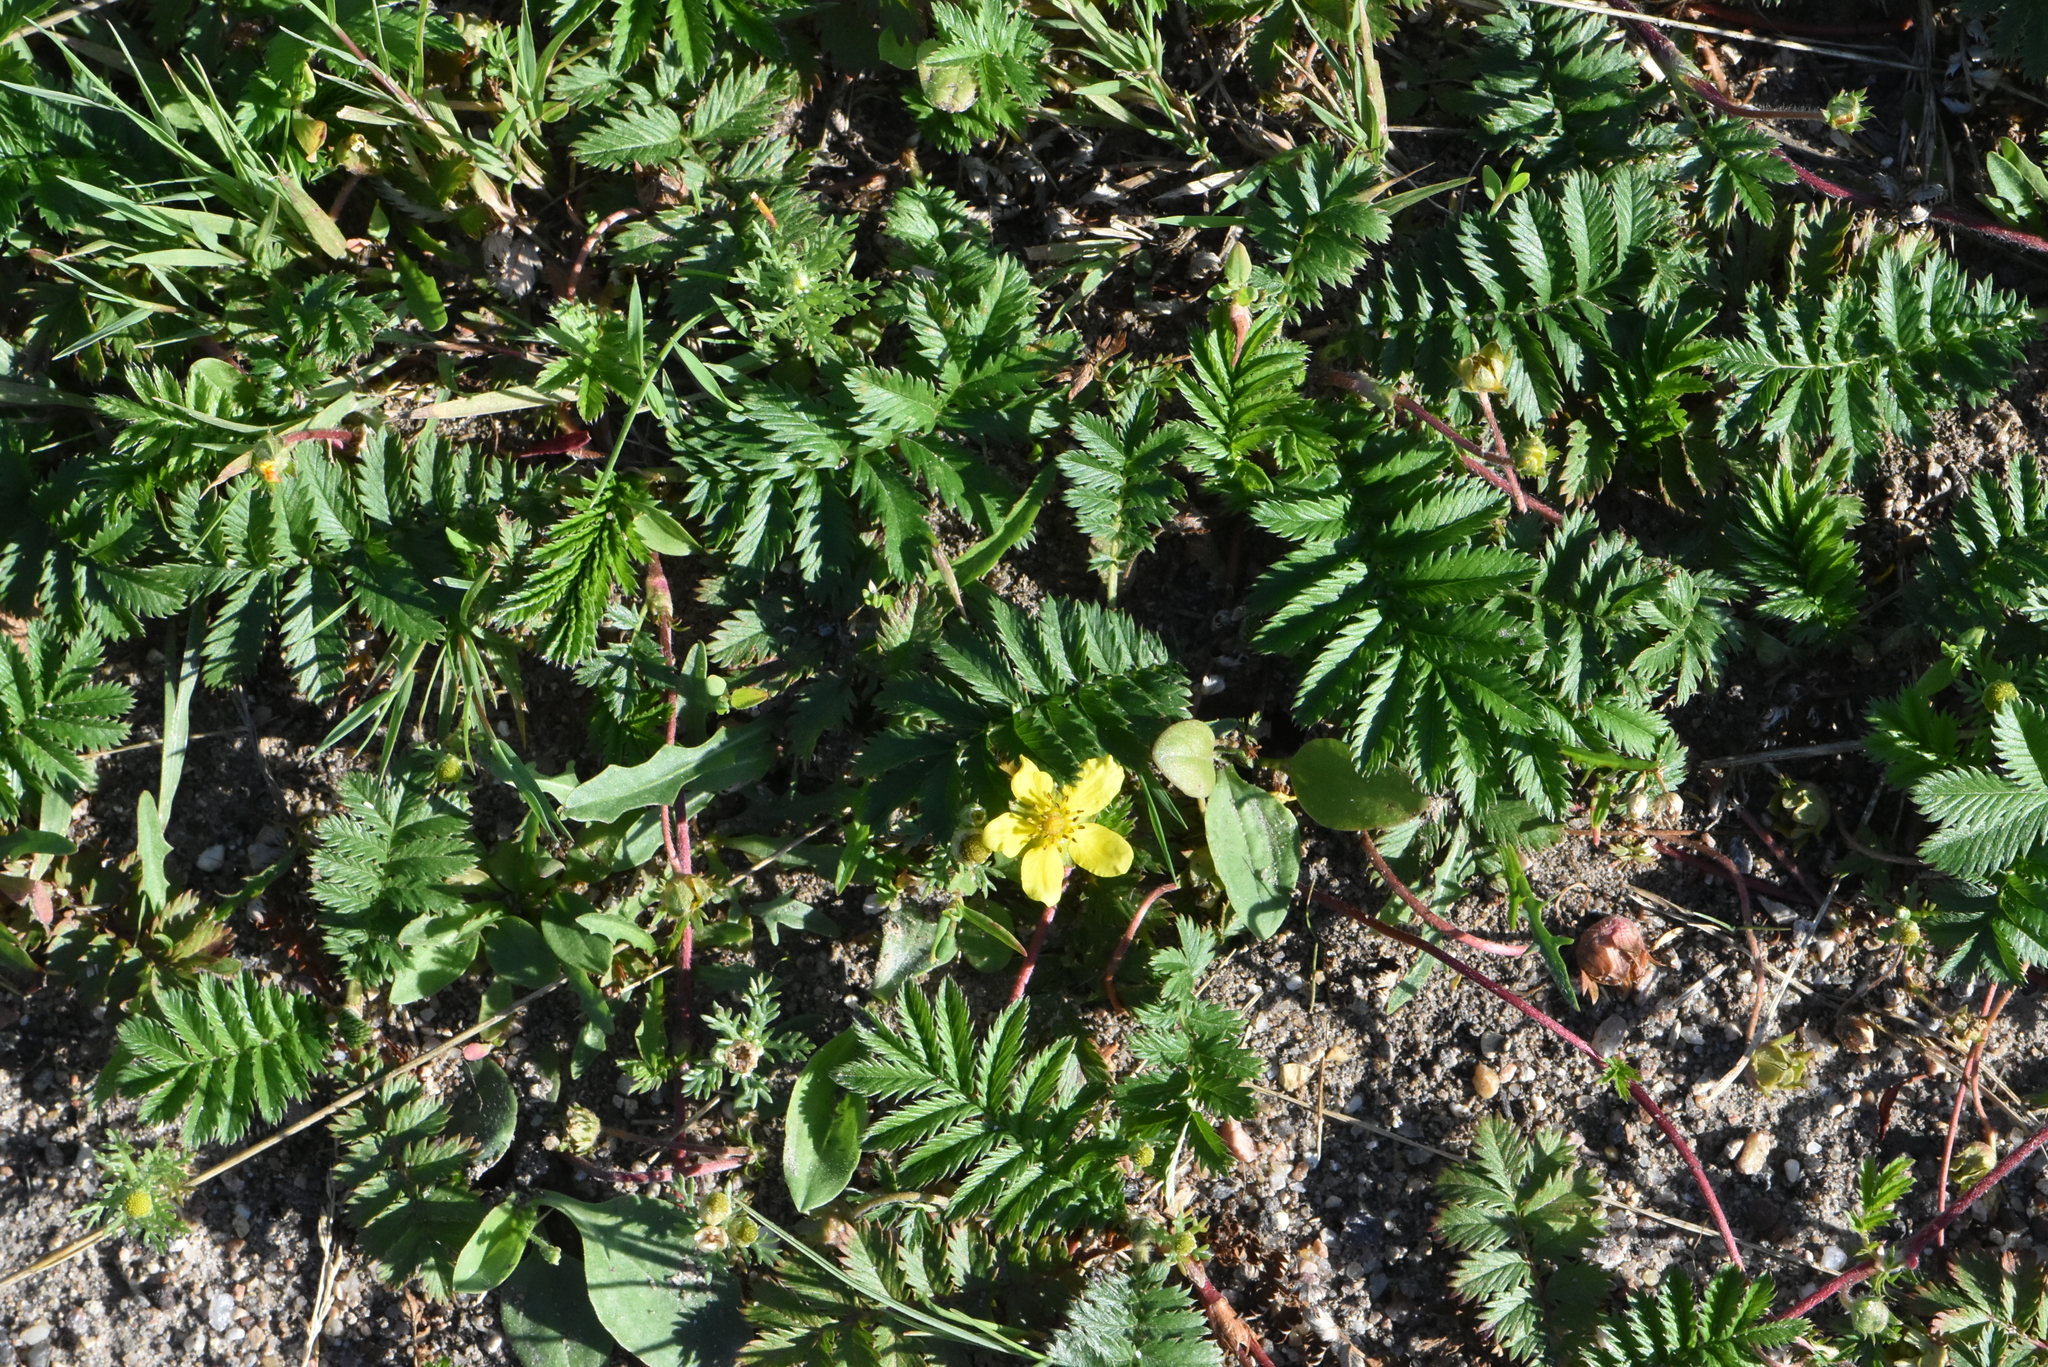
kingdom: Plantae
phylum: Tracheophyta
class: Magnoliopsida
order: Rosales
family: Rosaceae
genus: Argentina
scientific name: Argentina anserina
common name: Common silverweed
